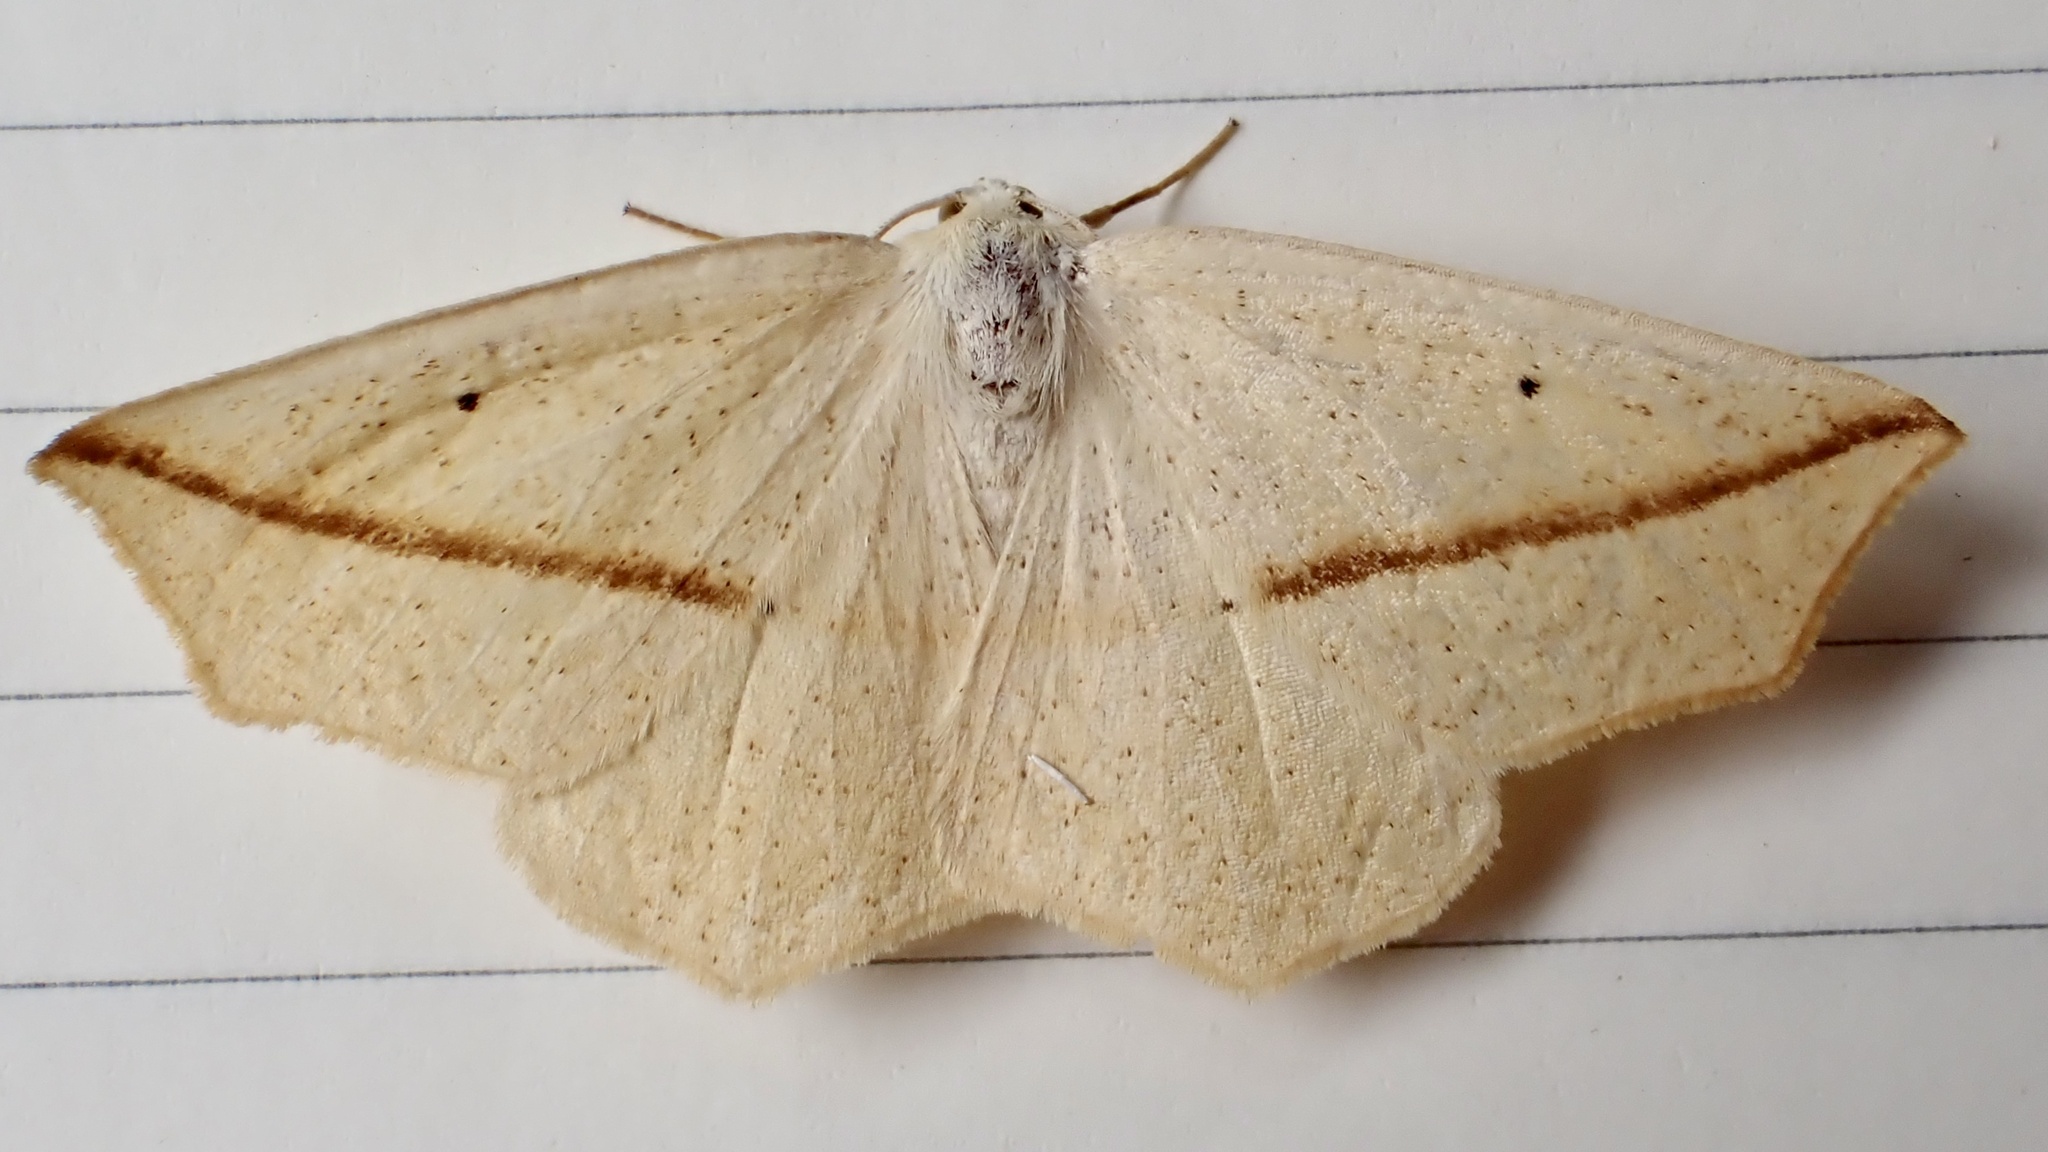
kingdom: Animalia
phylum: Arthropoda
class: Insecta
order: Lepidoptera
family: Geometridae
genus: Tetracis
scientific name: Tetracis crocallata
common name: Yellow slant-line
